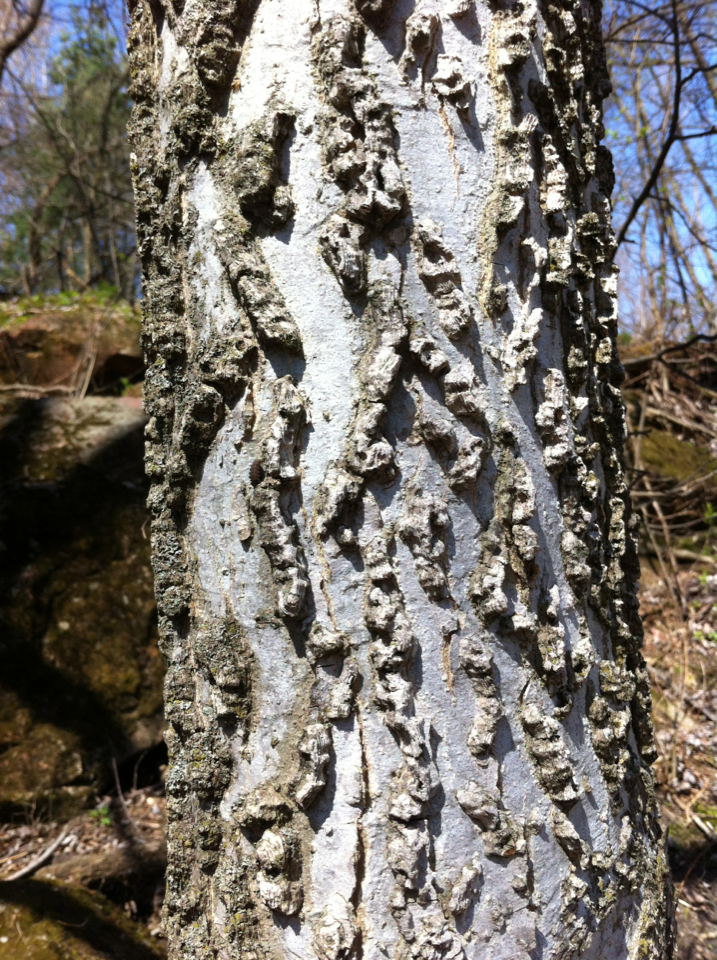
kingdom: Plantae
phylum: Tracheophyta
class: Magnoliopsida
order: Rosales
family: Cannabaceae
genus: Celtis
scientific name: Celtis occidentalis
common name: Common hackberry
